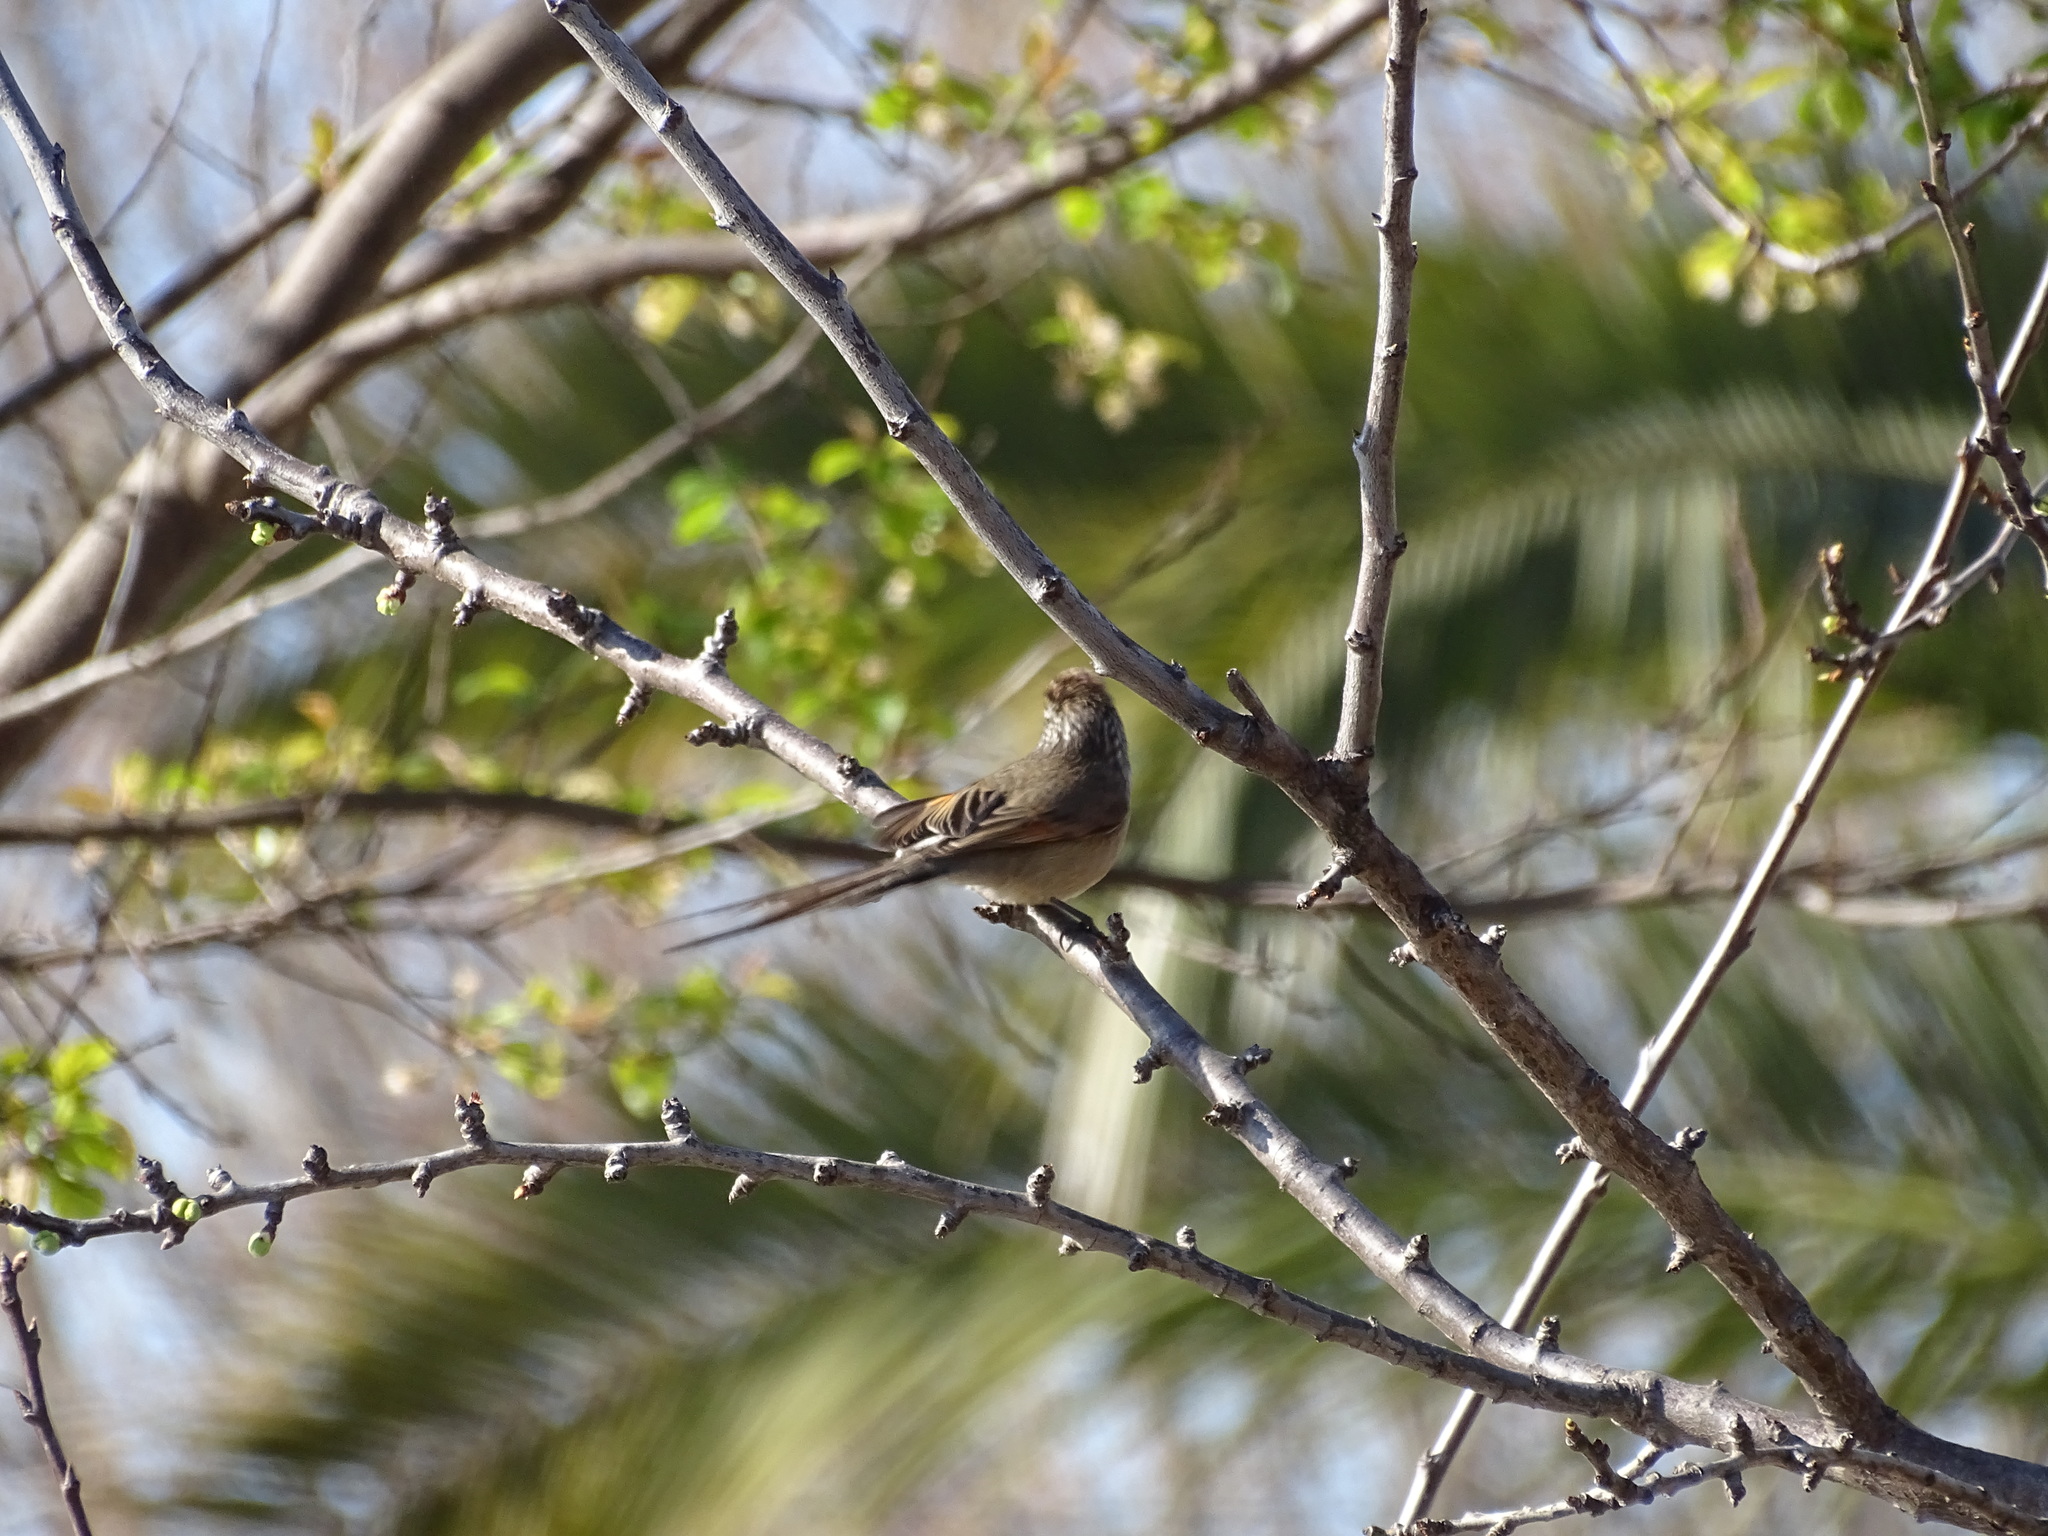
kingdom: Animalia
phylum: Chordata
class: Aves
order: Passeriformes
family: Furnariidae
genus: Leptasthenura
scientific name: Leptasthenura aegithaloides
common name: Plain-mantled tit-spinetail
